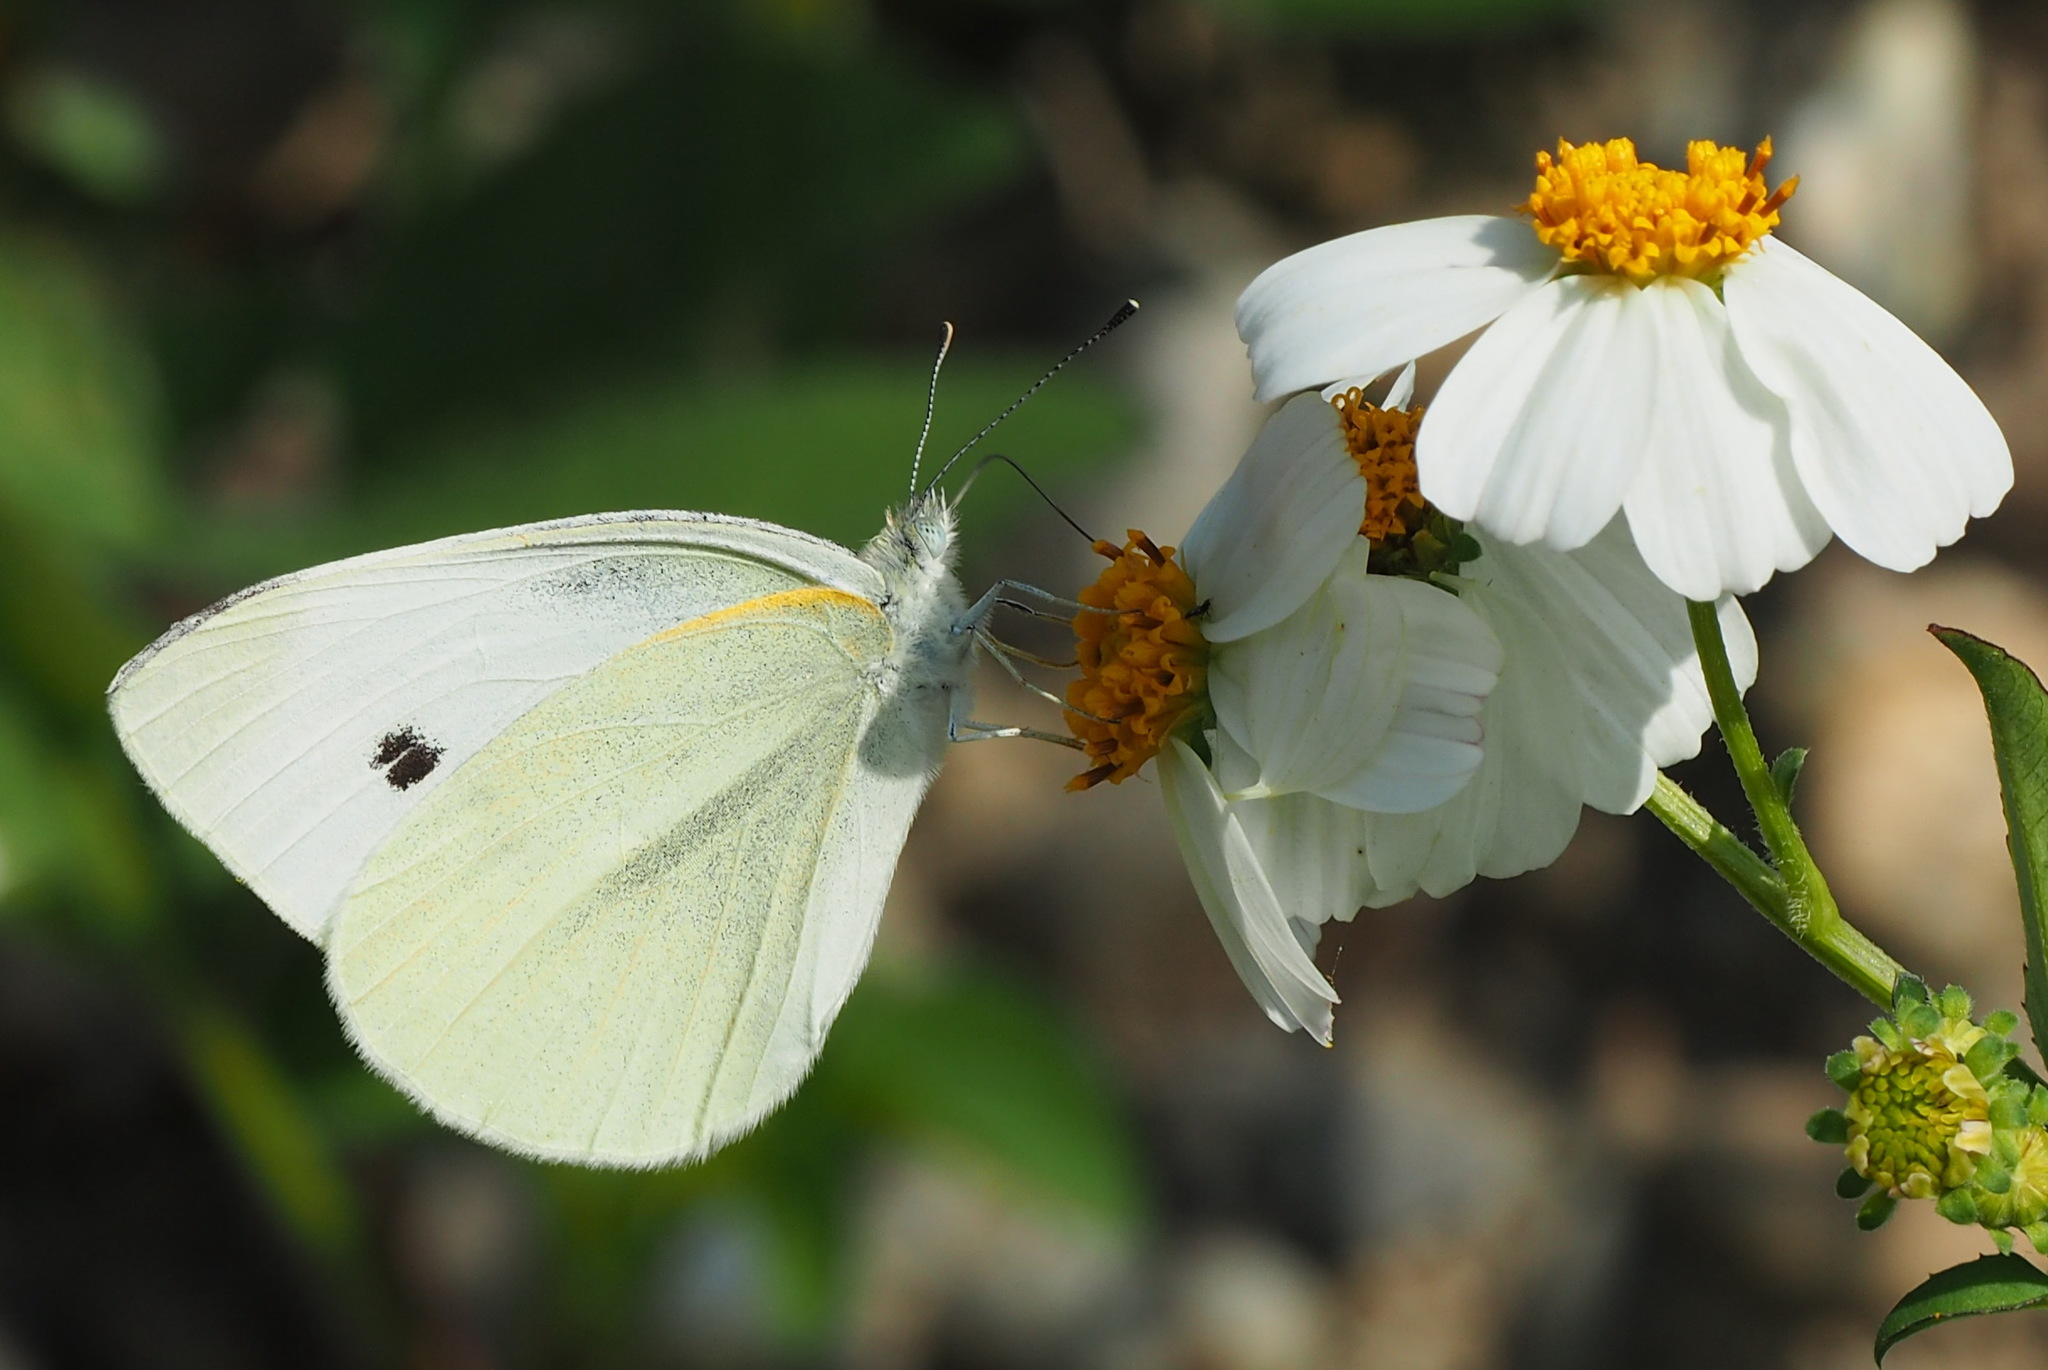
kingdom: Animalia
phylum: Arthropoda
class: Insecta
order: Lepidoptera
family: Pieridae
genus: Pieris
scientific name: Pieris rapae
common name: Small white
